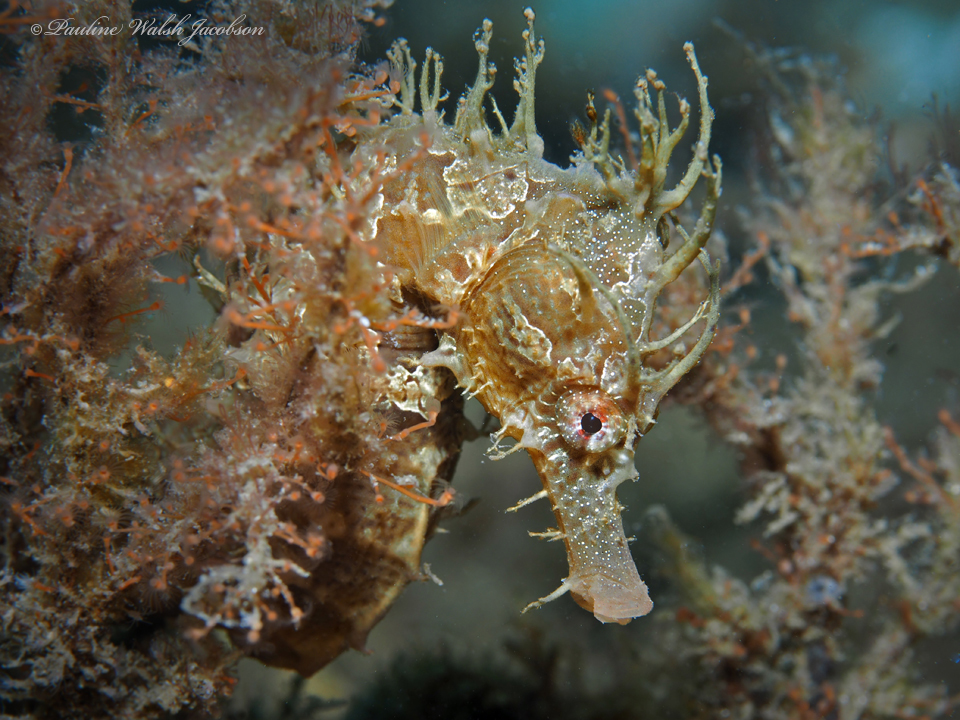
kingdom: Animalia
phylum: Chordata
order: Syngnathiformes
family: Syngnathidae
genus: Hippocampus
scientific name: Hippocampus erectus
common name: Lined seahorse
